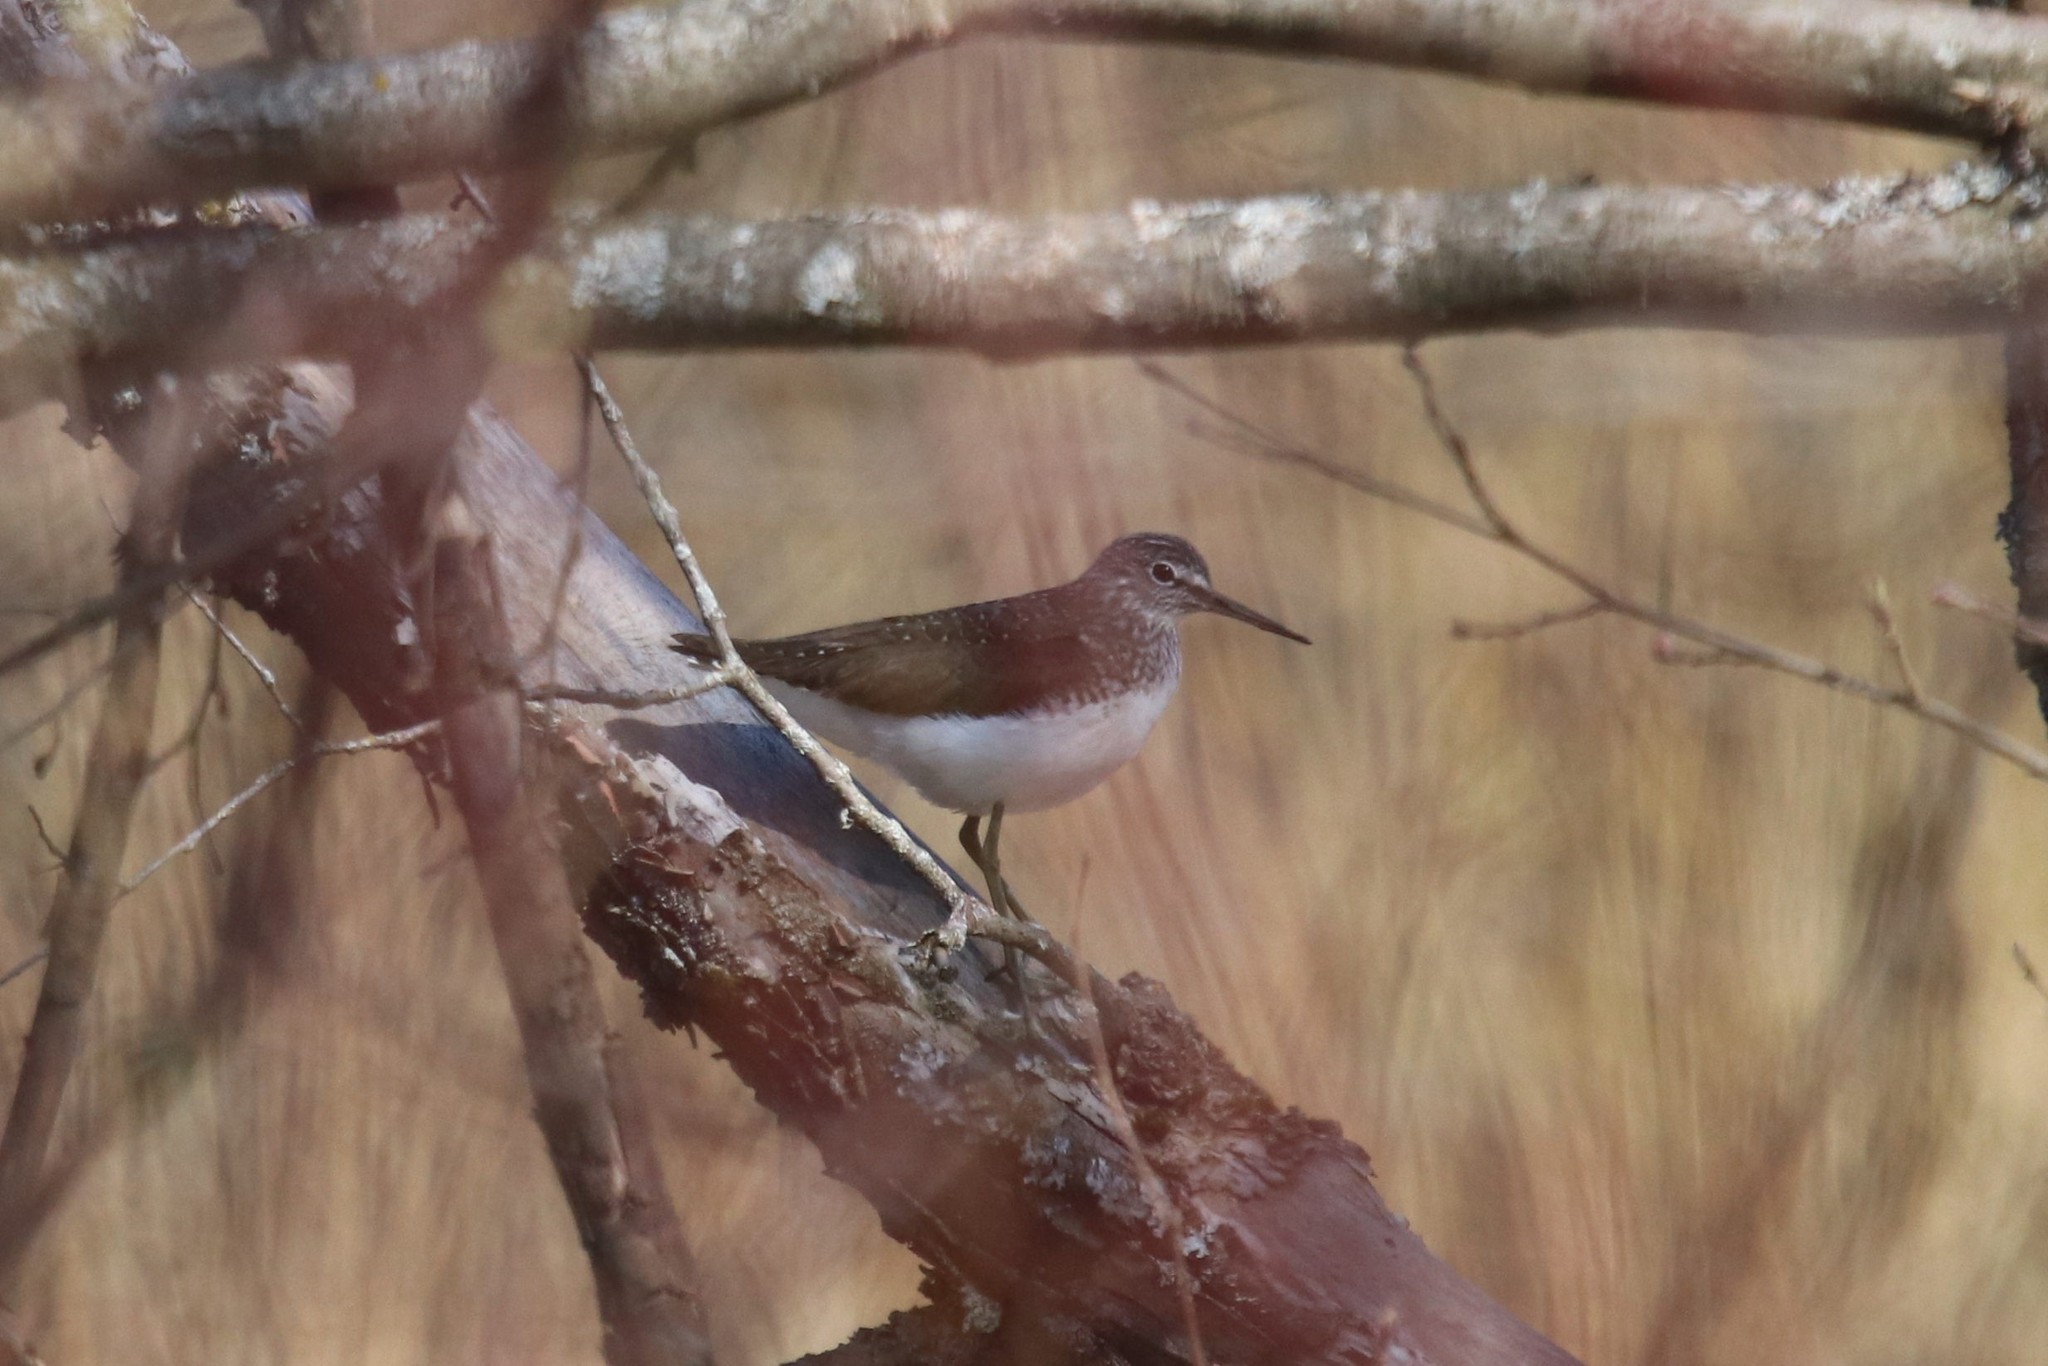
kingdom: Animalia
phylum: Chordata
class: Aves
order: Charadriiformes
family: Scolopacidae
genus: Tringa
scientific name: Tringa ochropus
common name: Green sandpiper
